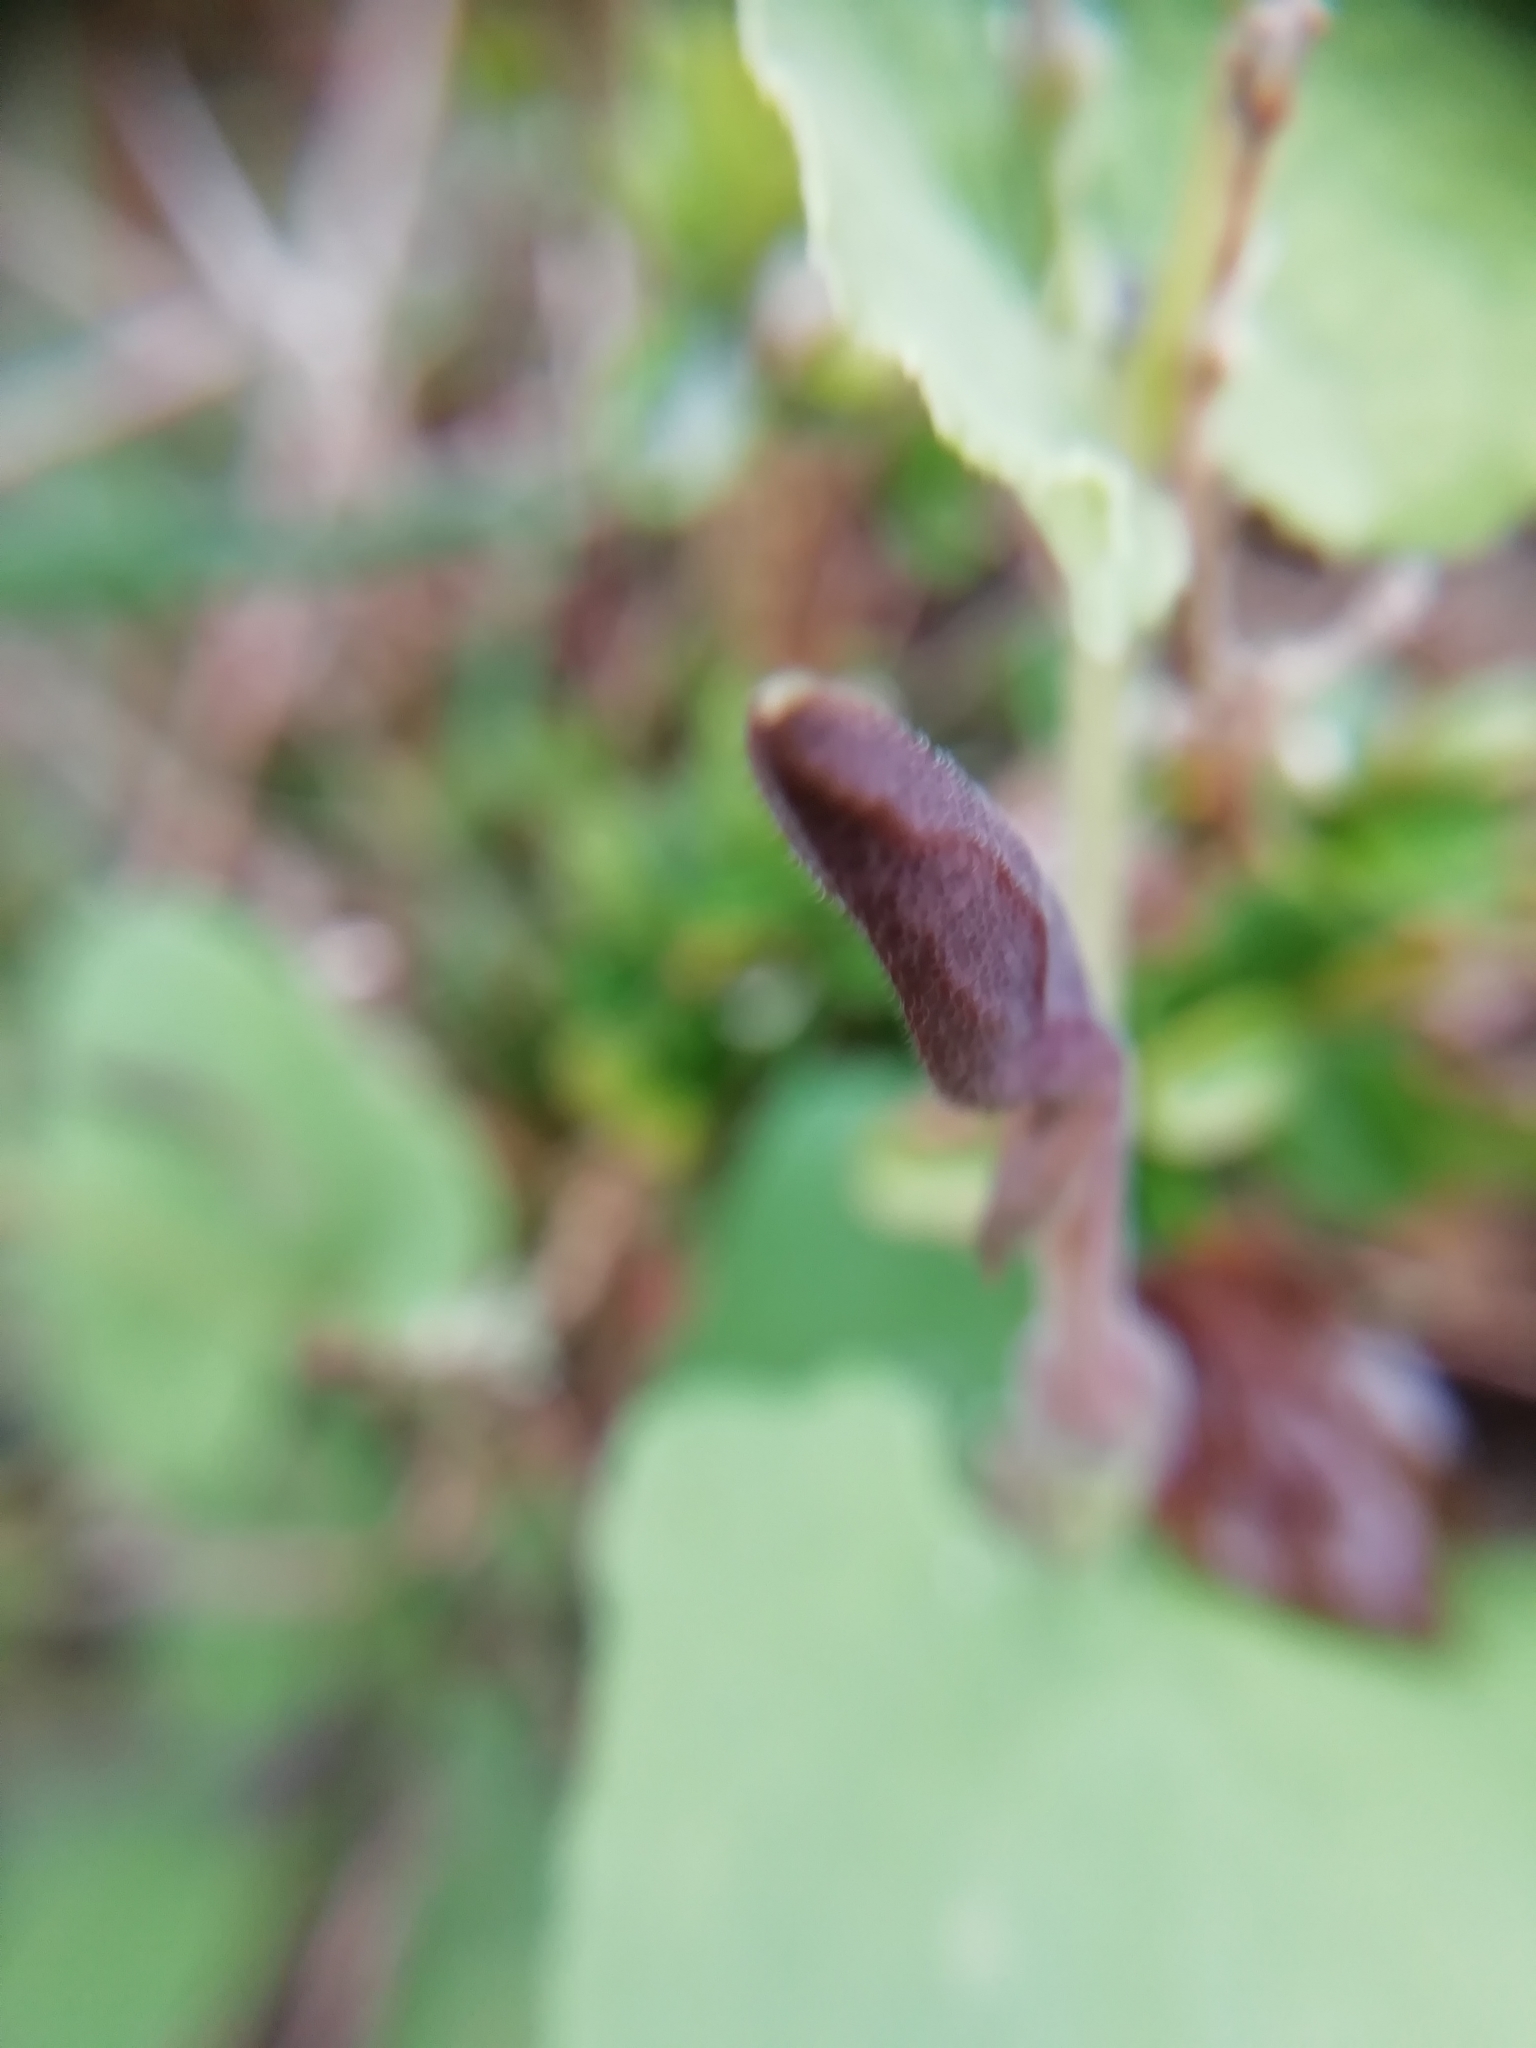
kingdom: Plantae
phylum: Tracheophyta
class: Magnoliopsida
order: Piperales
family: Aristolochiaceae
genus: Aristolochia
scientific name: Aristolochia pistolochia
